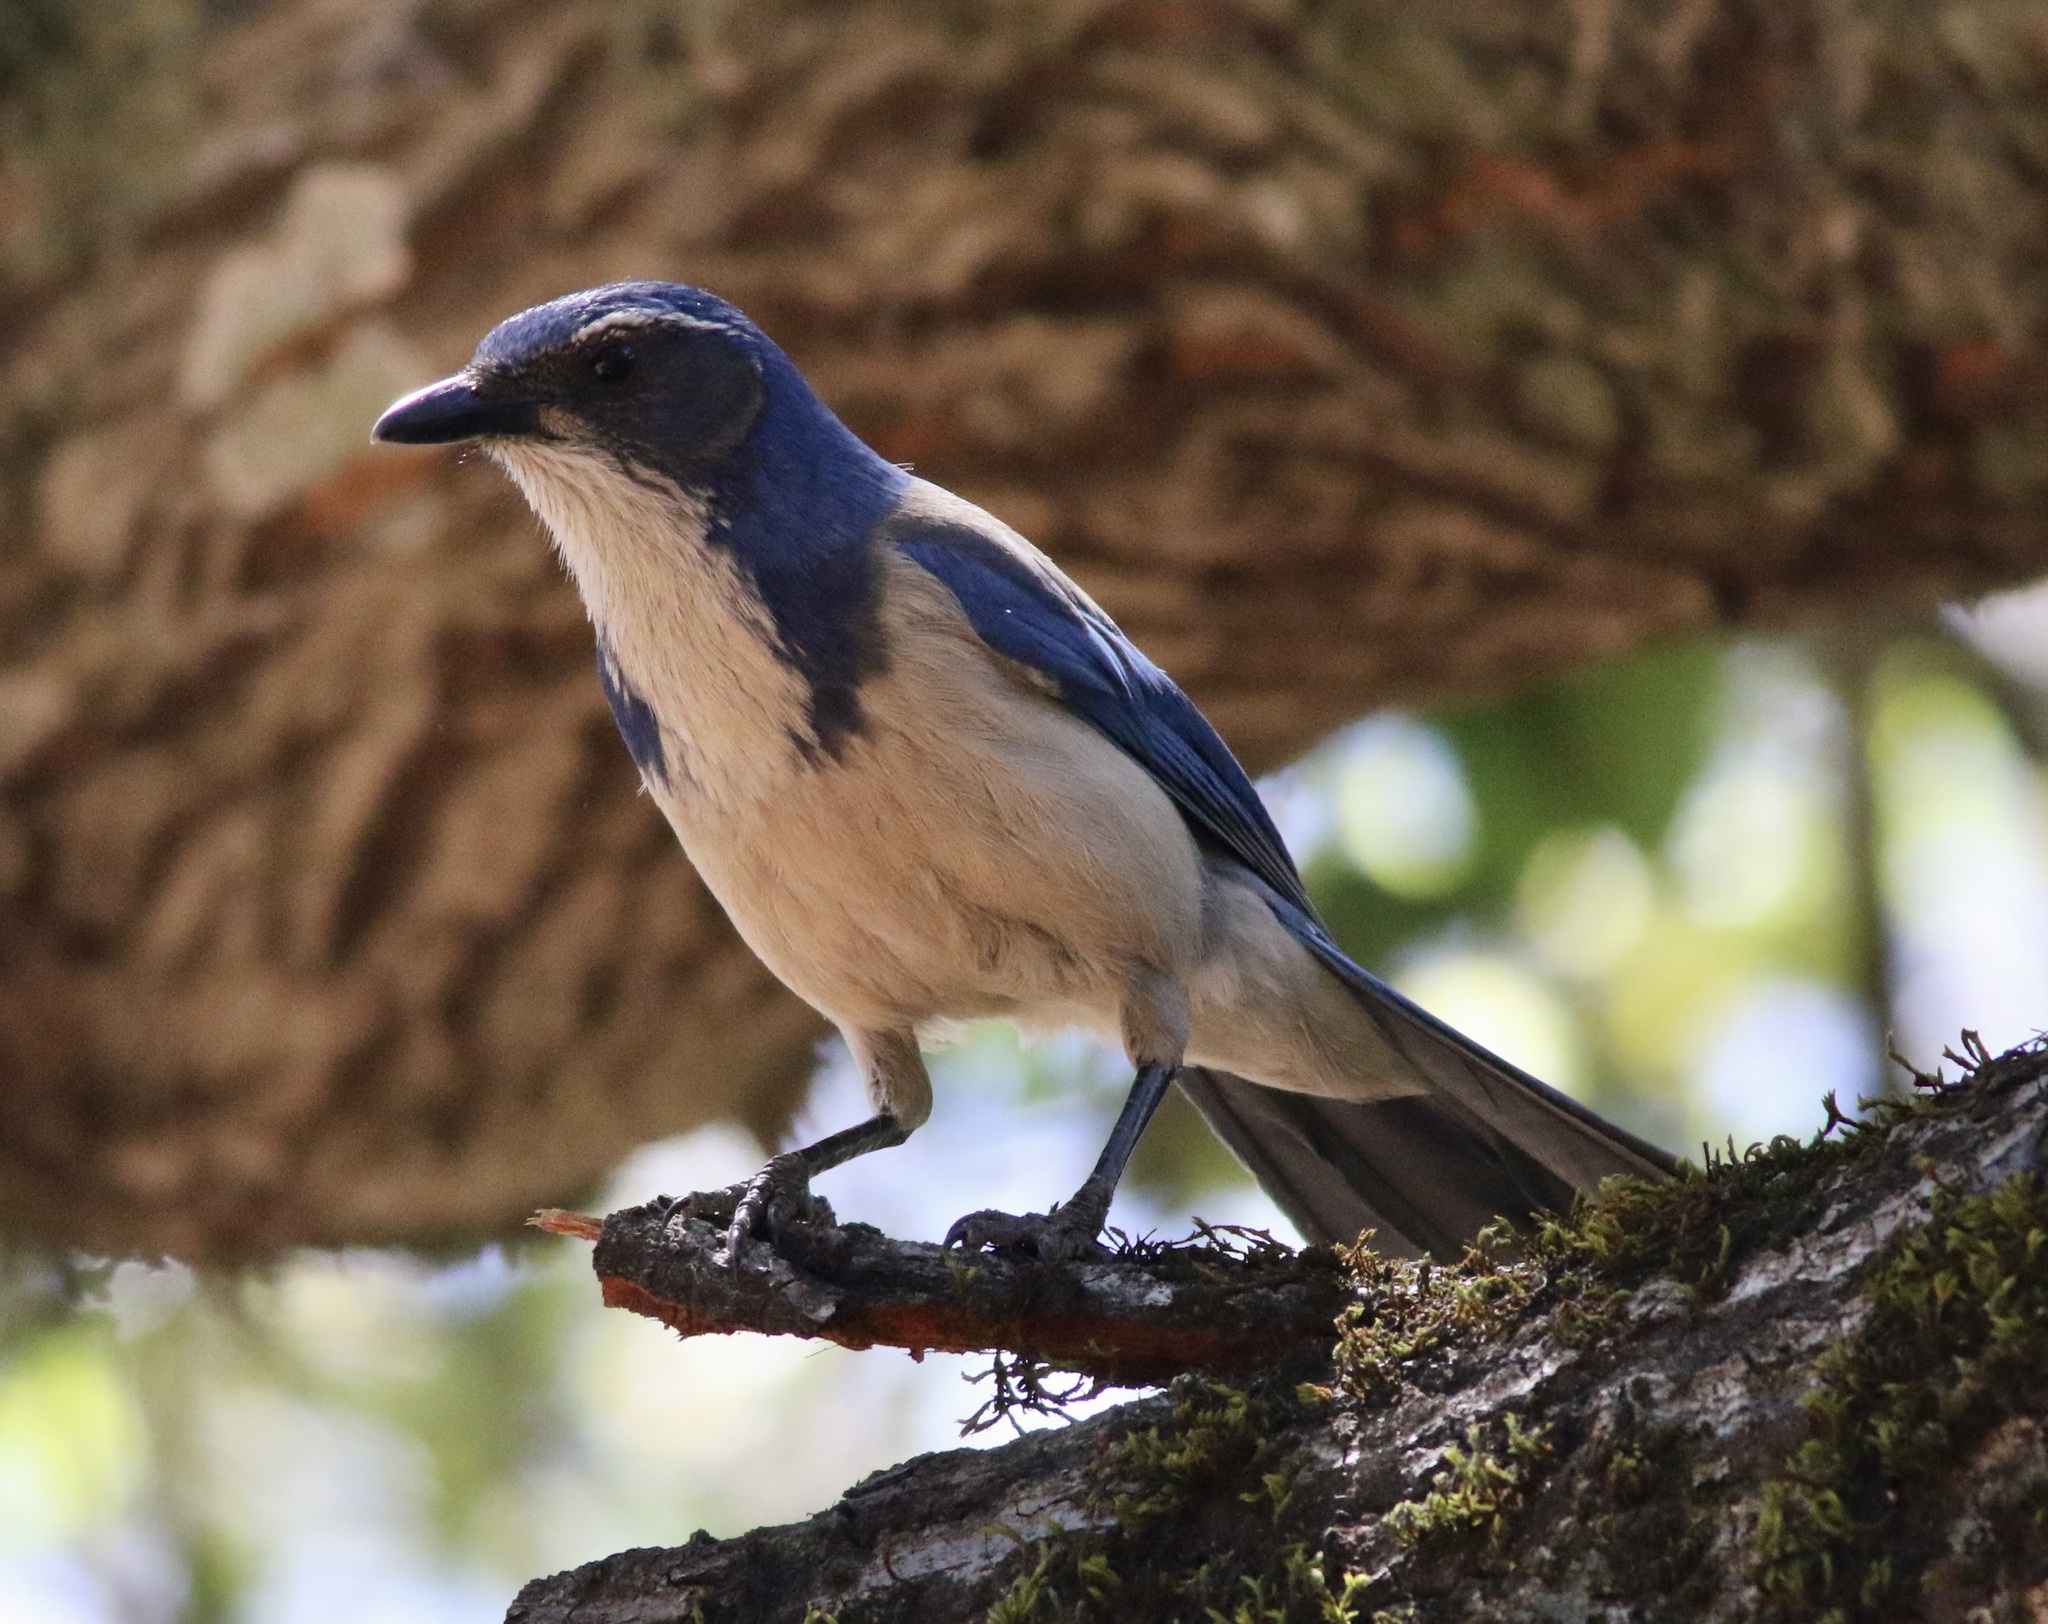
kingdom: Animalia
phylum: Chordata
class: Aves
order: Passeriformes
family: Corvidae
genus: Aphelocoma
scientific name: Aphelocoma californica
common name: California scrub-jay
